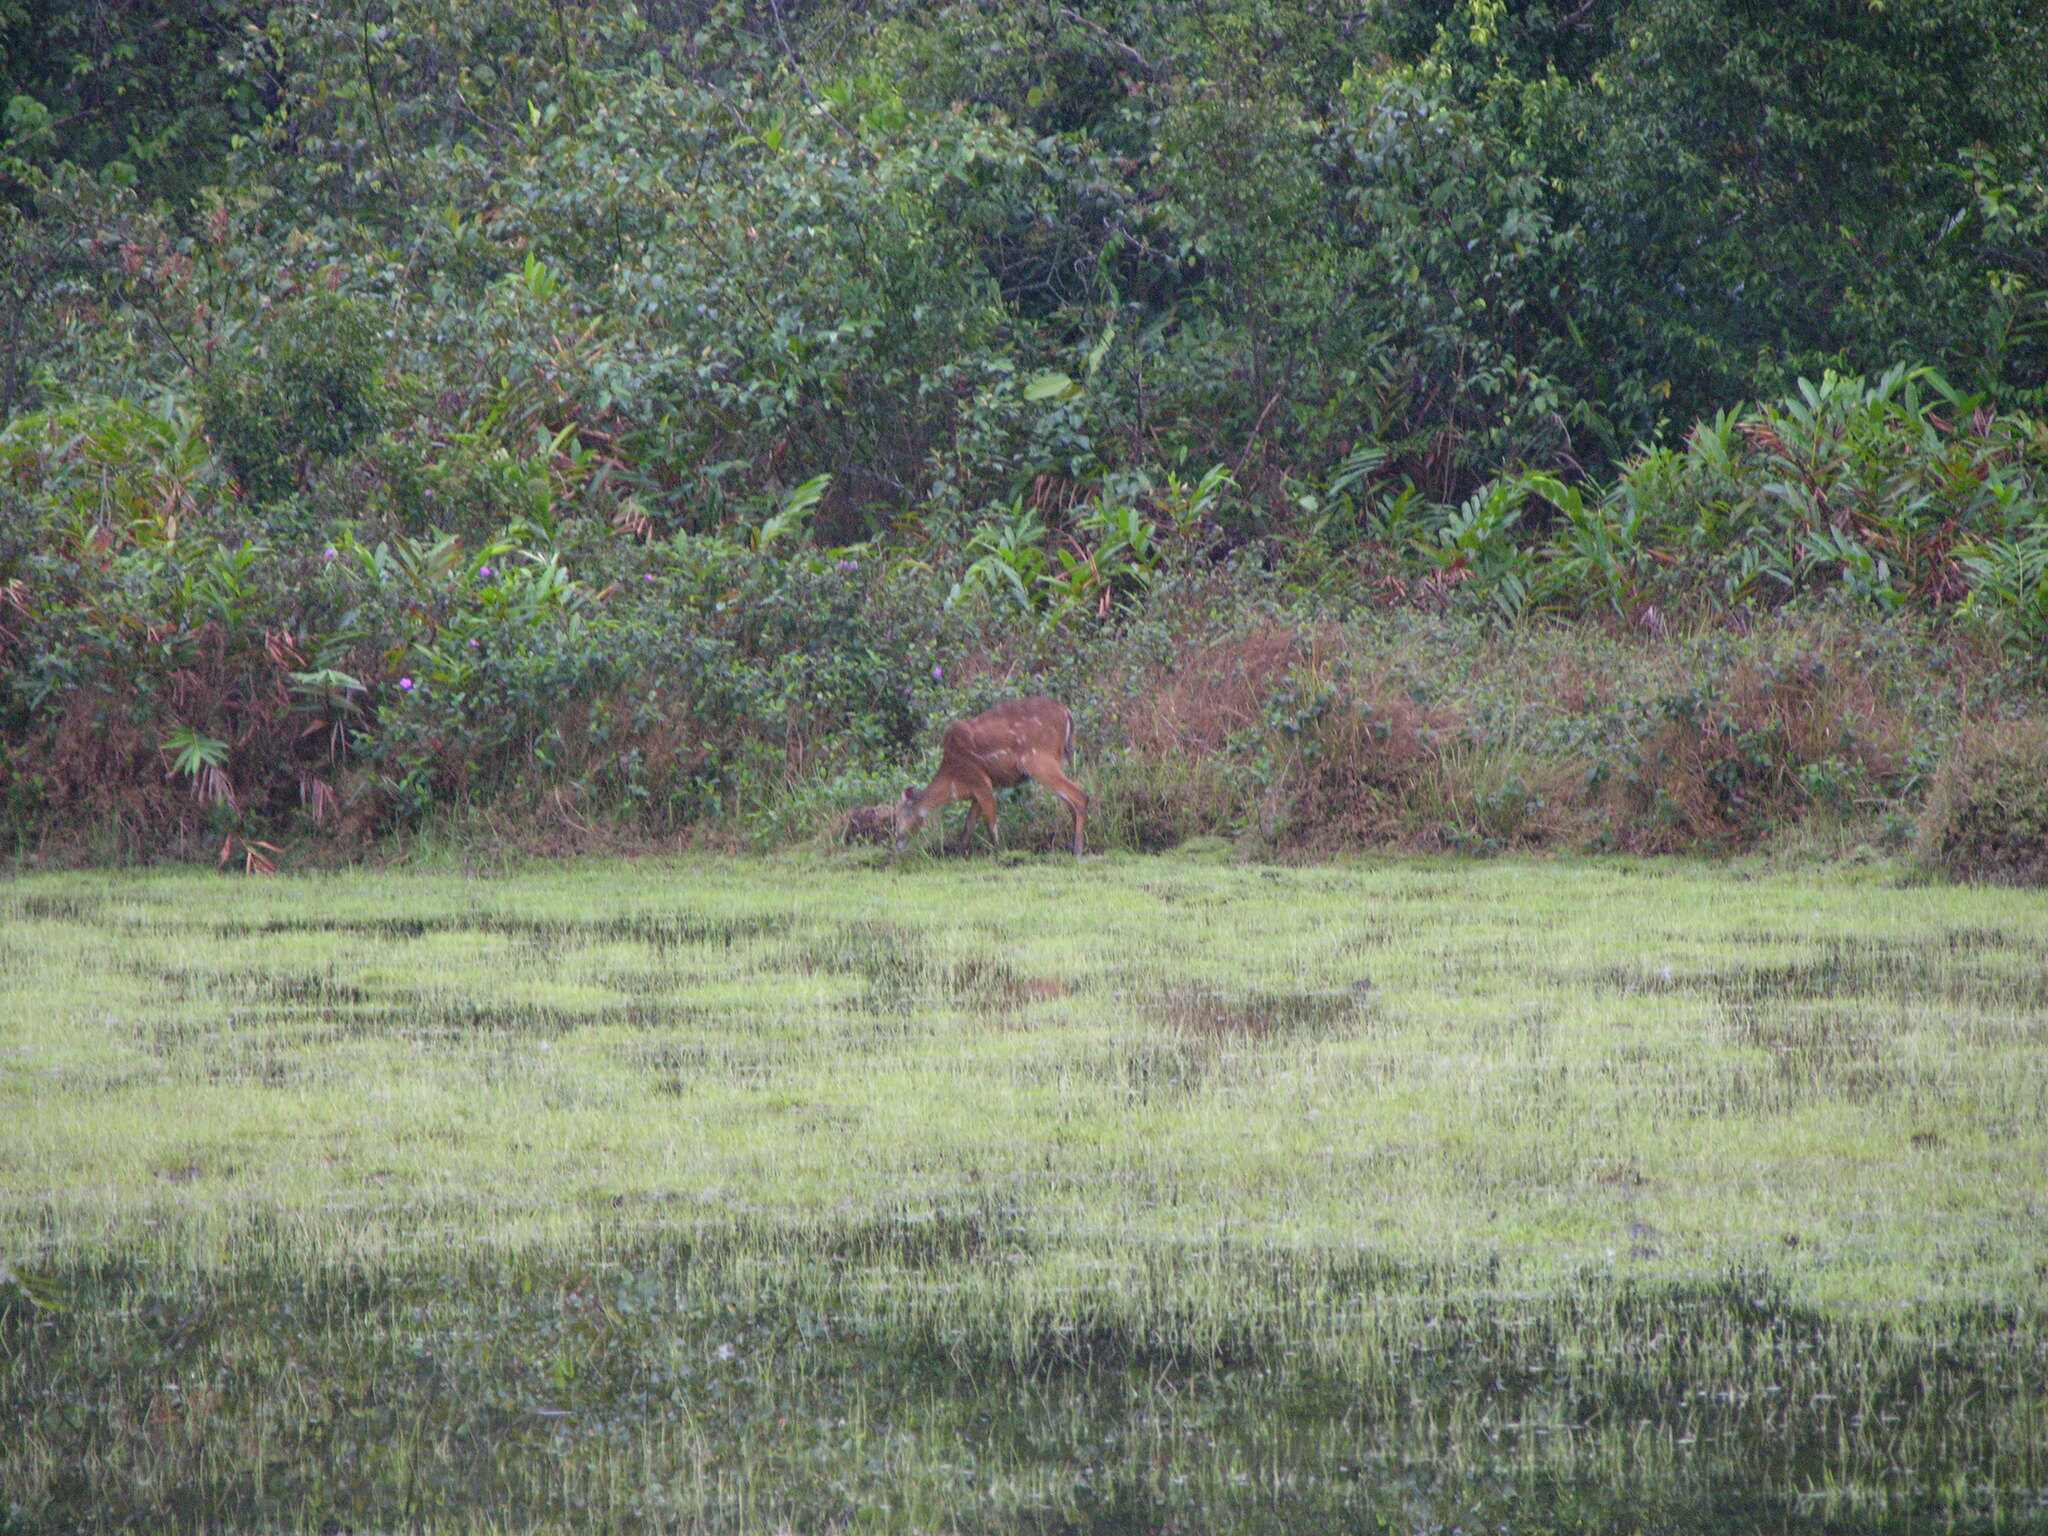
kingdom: Animalia
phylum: Chordata
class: Mammalia
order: Artiodactyla
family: Bovidae
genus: Tragelaphus
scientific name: Tragelaphus spekii
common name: Sitatunga
